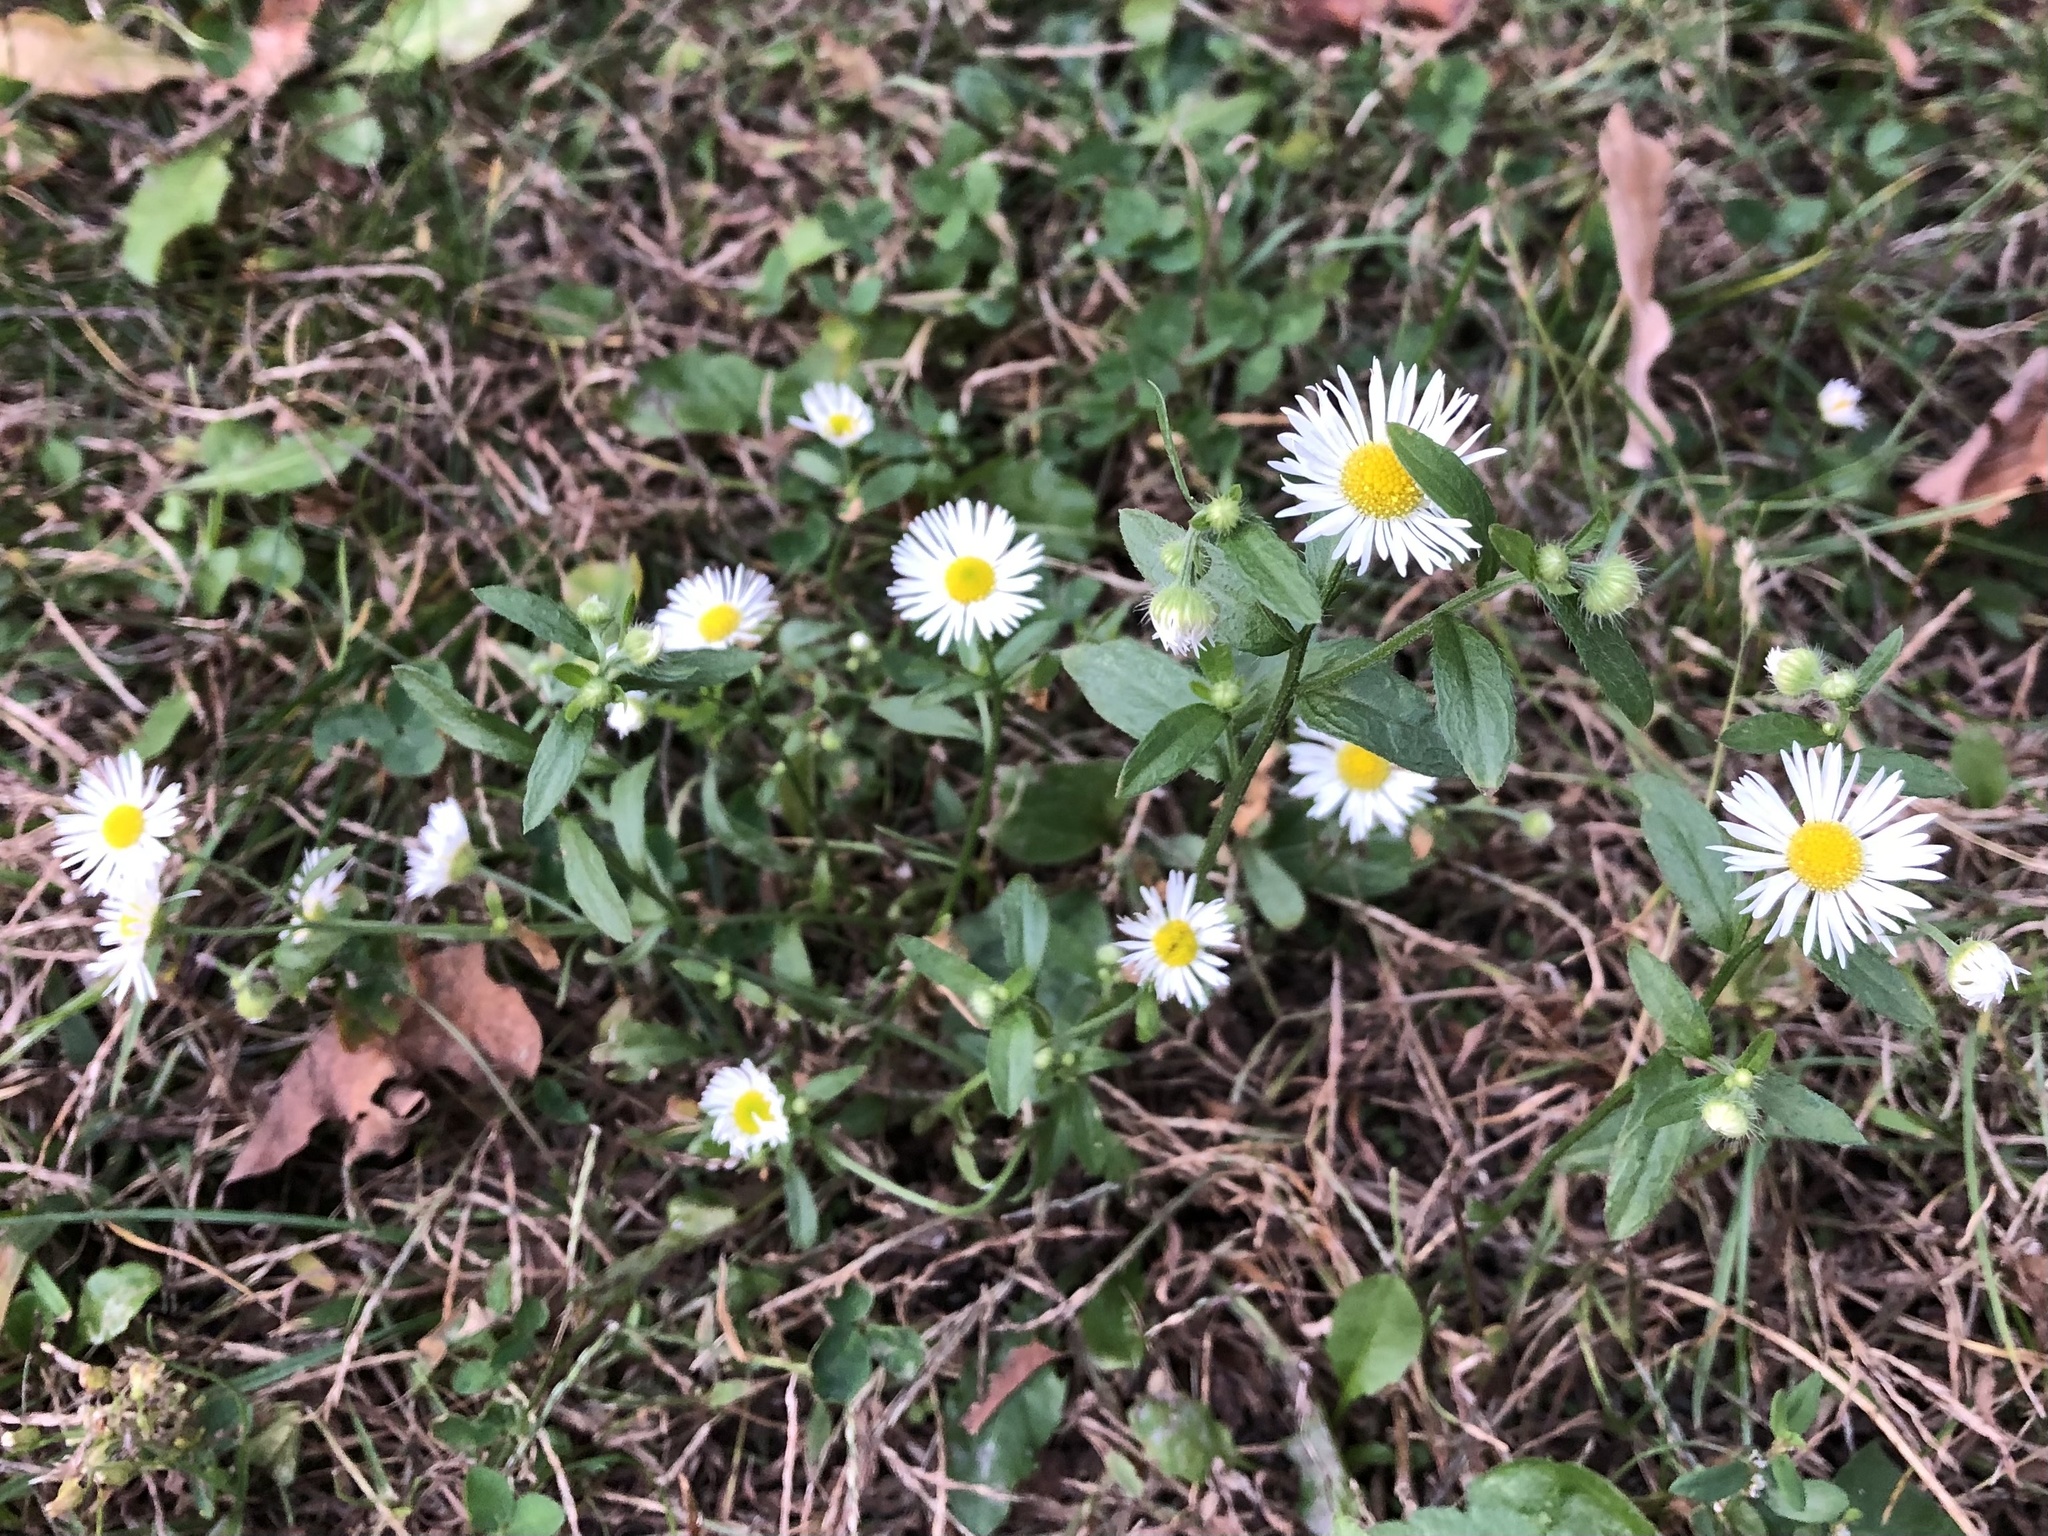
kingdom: Plantae
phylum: Tracheophyta
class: Magnoliopsida
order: Asterales
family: Asteraceae
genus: Erigeron
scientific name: Erigeron annuus
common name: Tall fleabane
